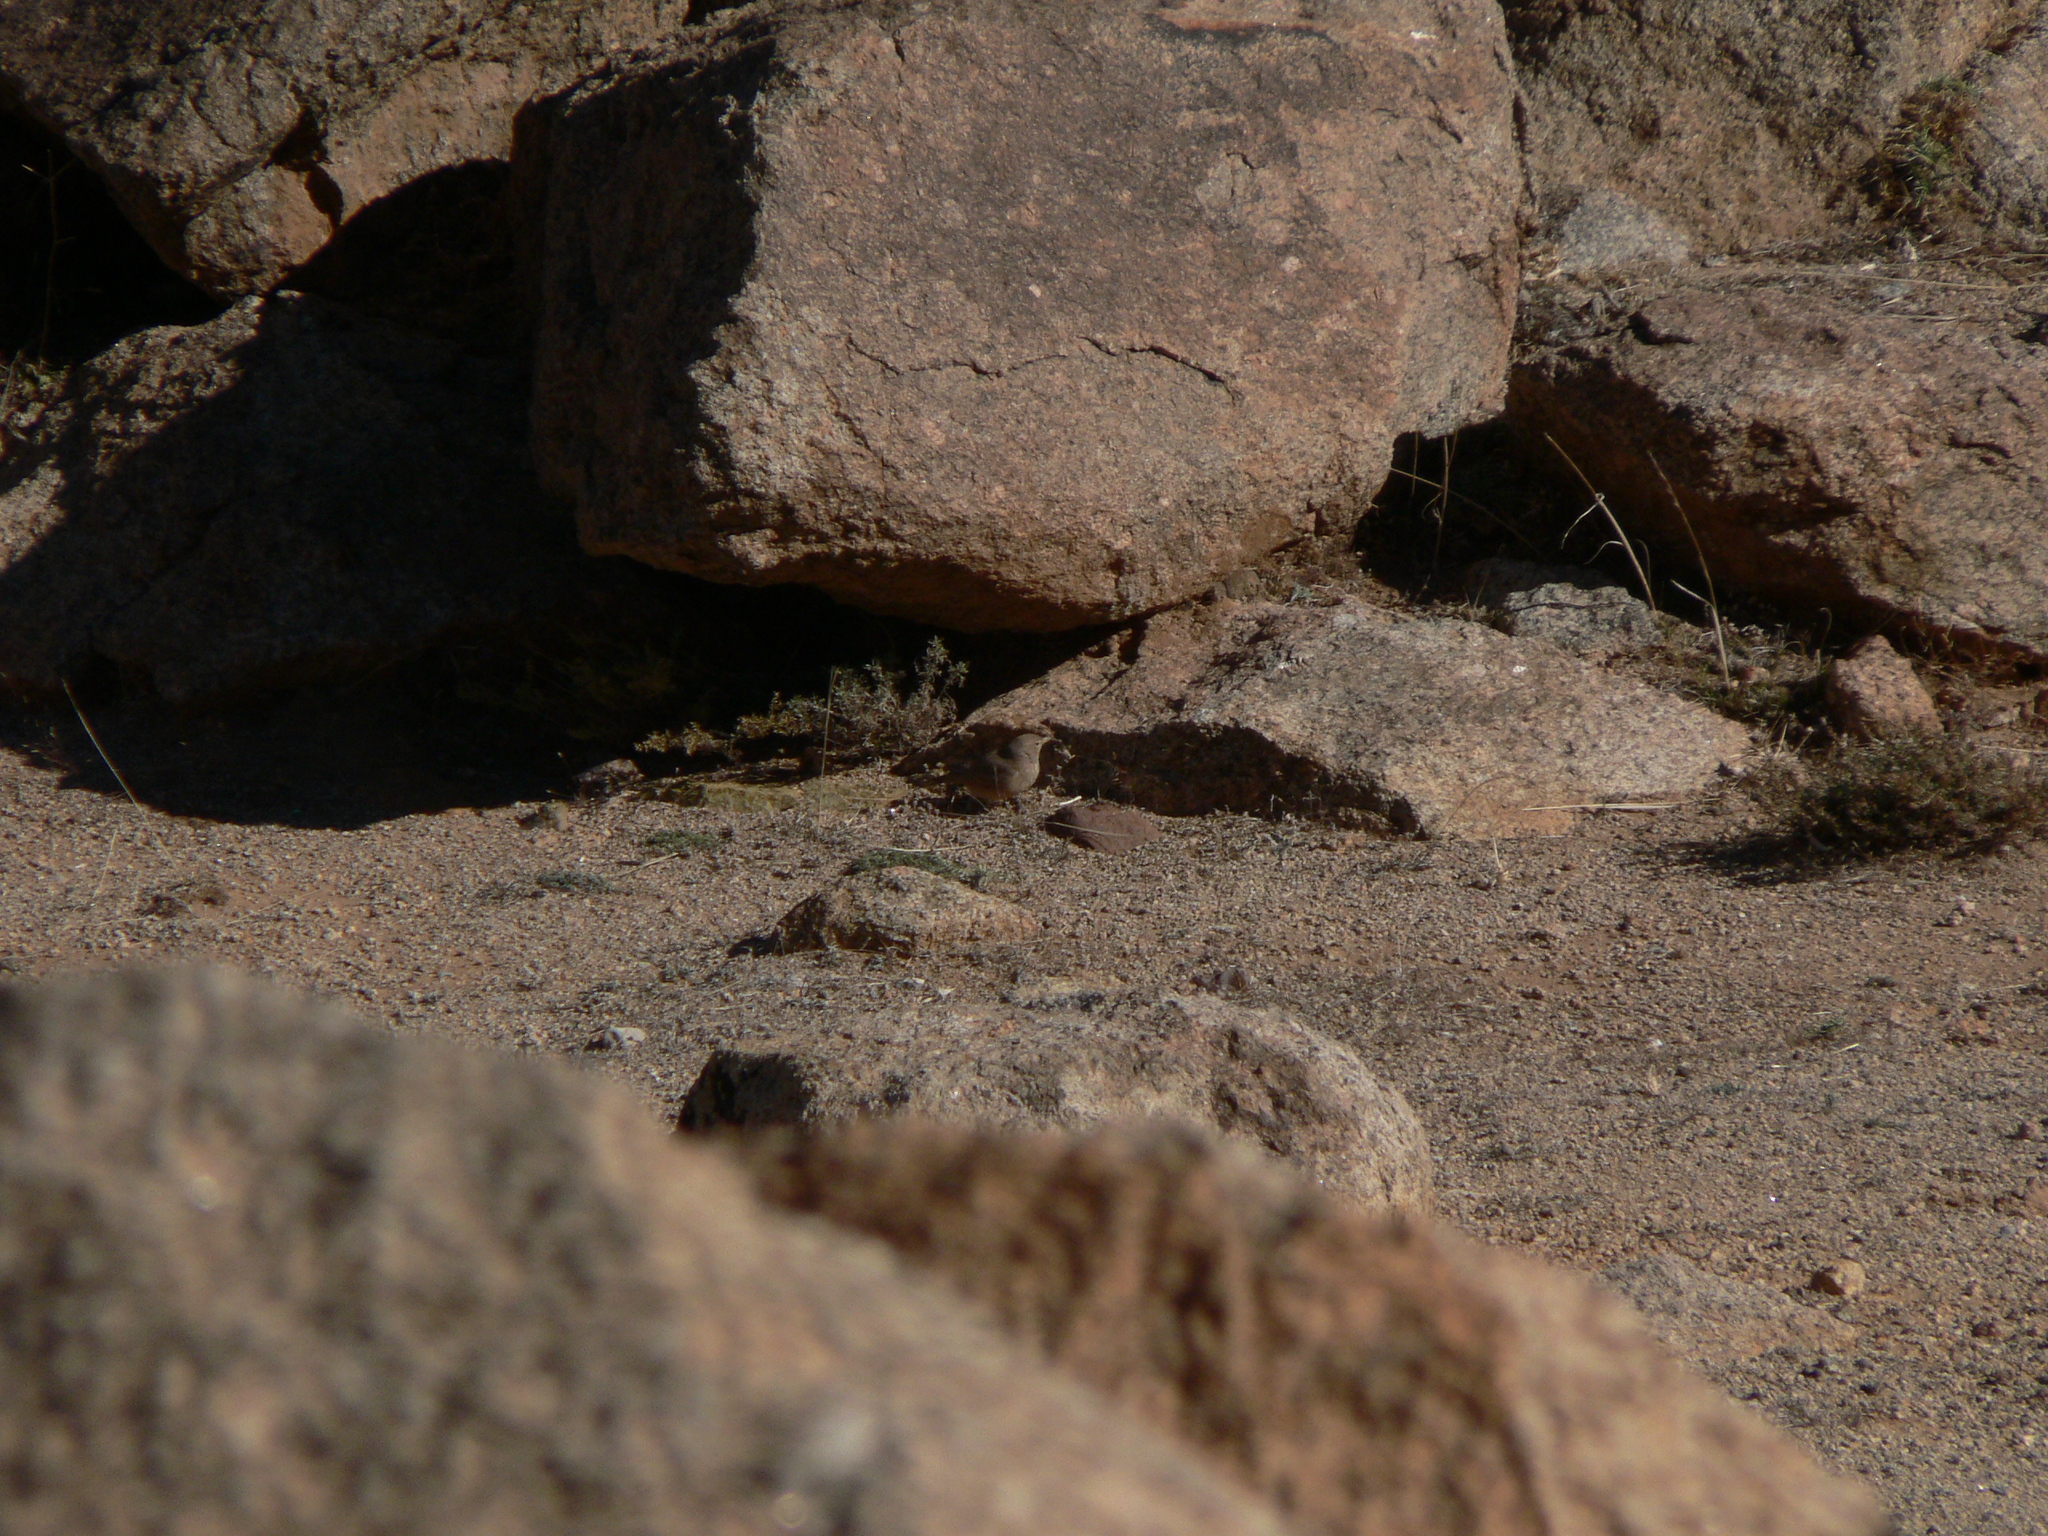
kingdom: Animalia
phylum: Chordata
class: Aves
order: Passeriformes
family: Alaudidae
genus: Ammomanes
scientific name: Ammomanes deserti
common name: Desert lark
